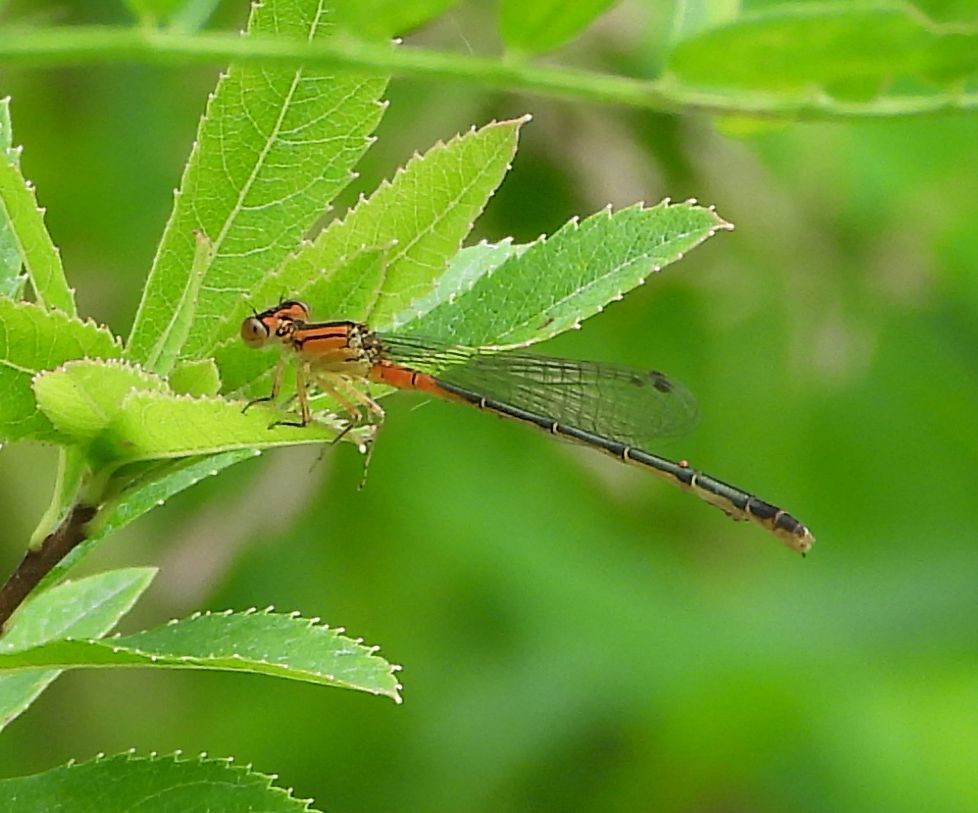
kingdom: Animalia
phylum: Arthropoda
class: Insecta
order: Odonata
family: Coenagrionidae
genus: Ischnura
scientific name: Ischnura verticalis
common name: Eastern forktail
